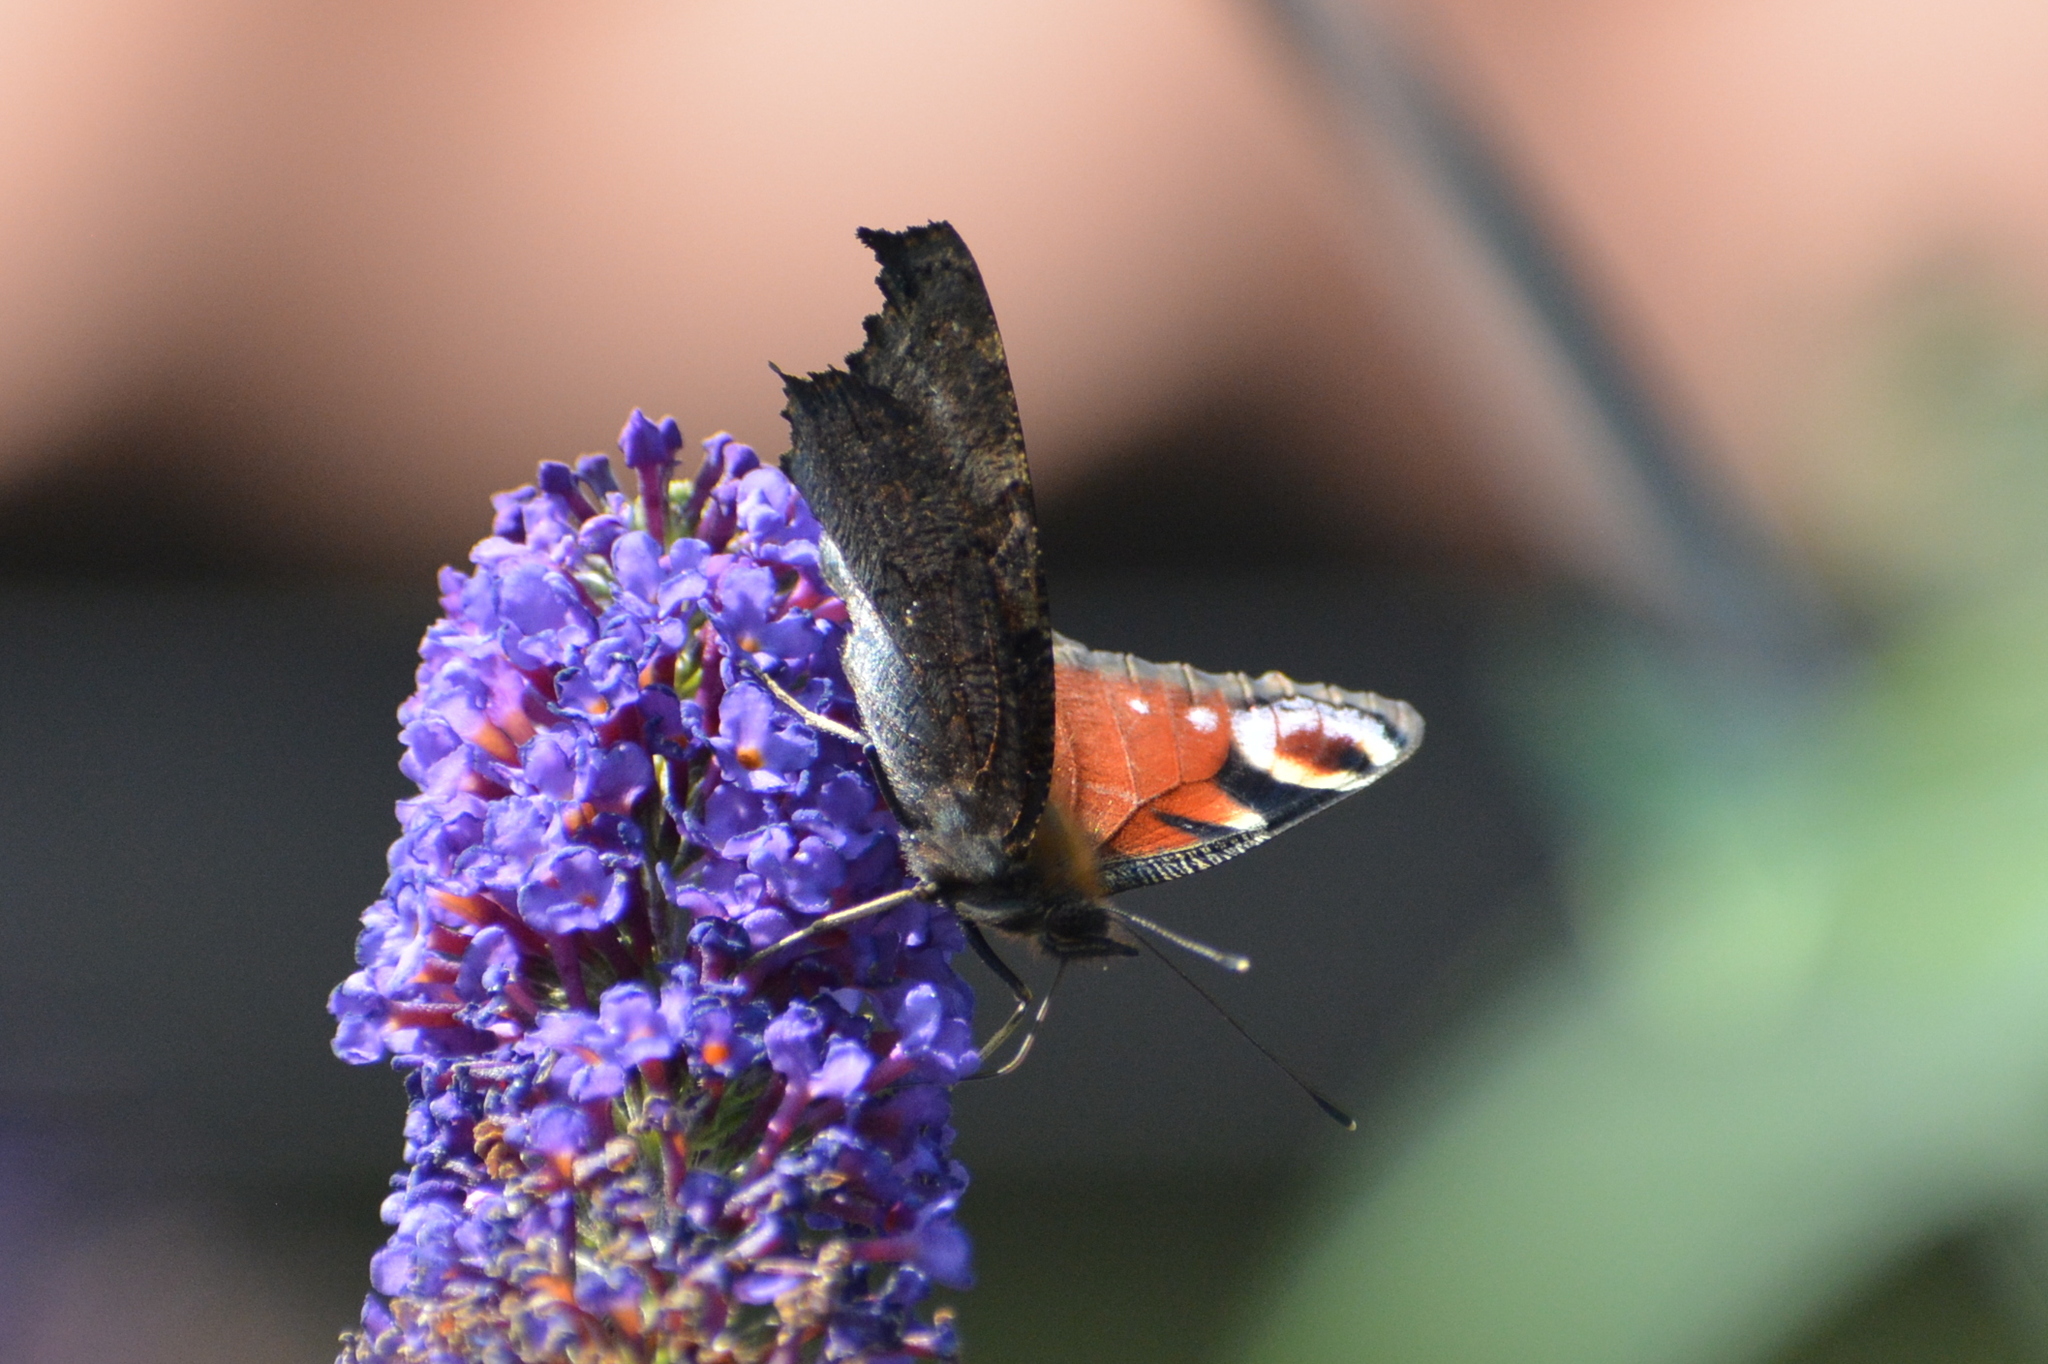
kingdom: Animalia
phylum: Arthropoda
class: Insecta
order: Lepidoptera
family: Nymphalidae
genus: Aglais
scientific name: Aglais io
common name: Peacock
